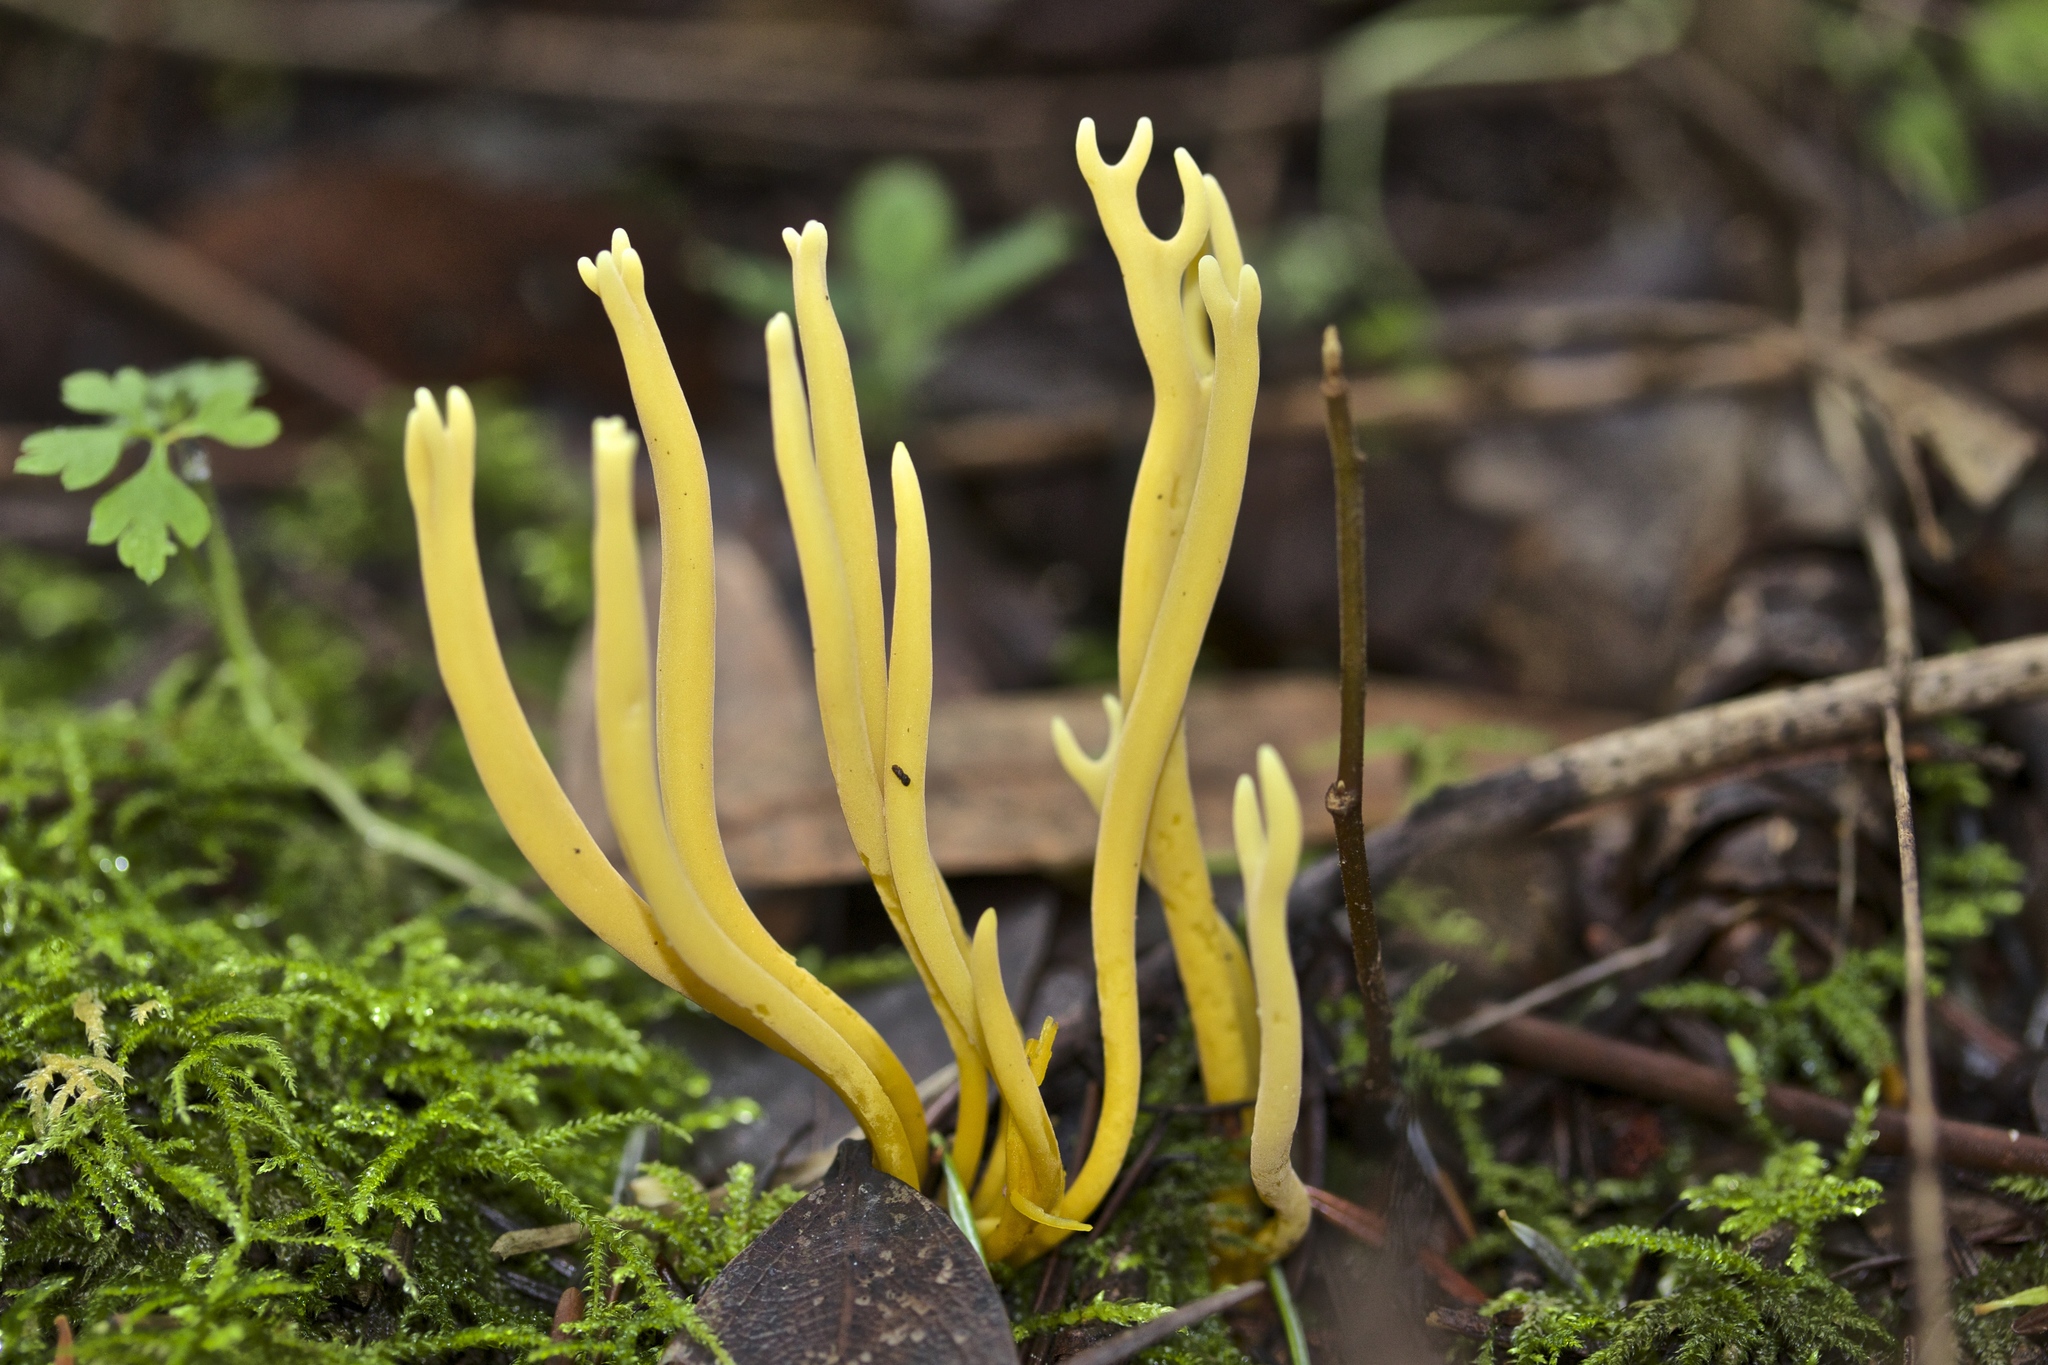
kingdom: Fungi
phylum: Basidiomycota
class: Agaricomycetes
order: Agaricales
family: Clavariaceae
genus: Clavulinopsis
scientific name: Clavulinopsis corniculata
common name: Meadow coral
